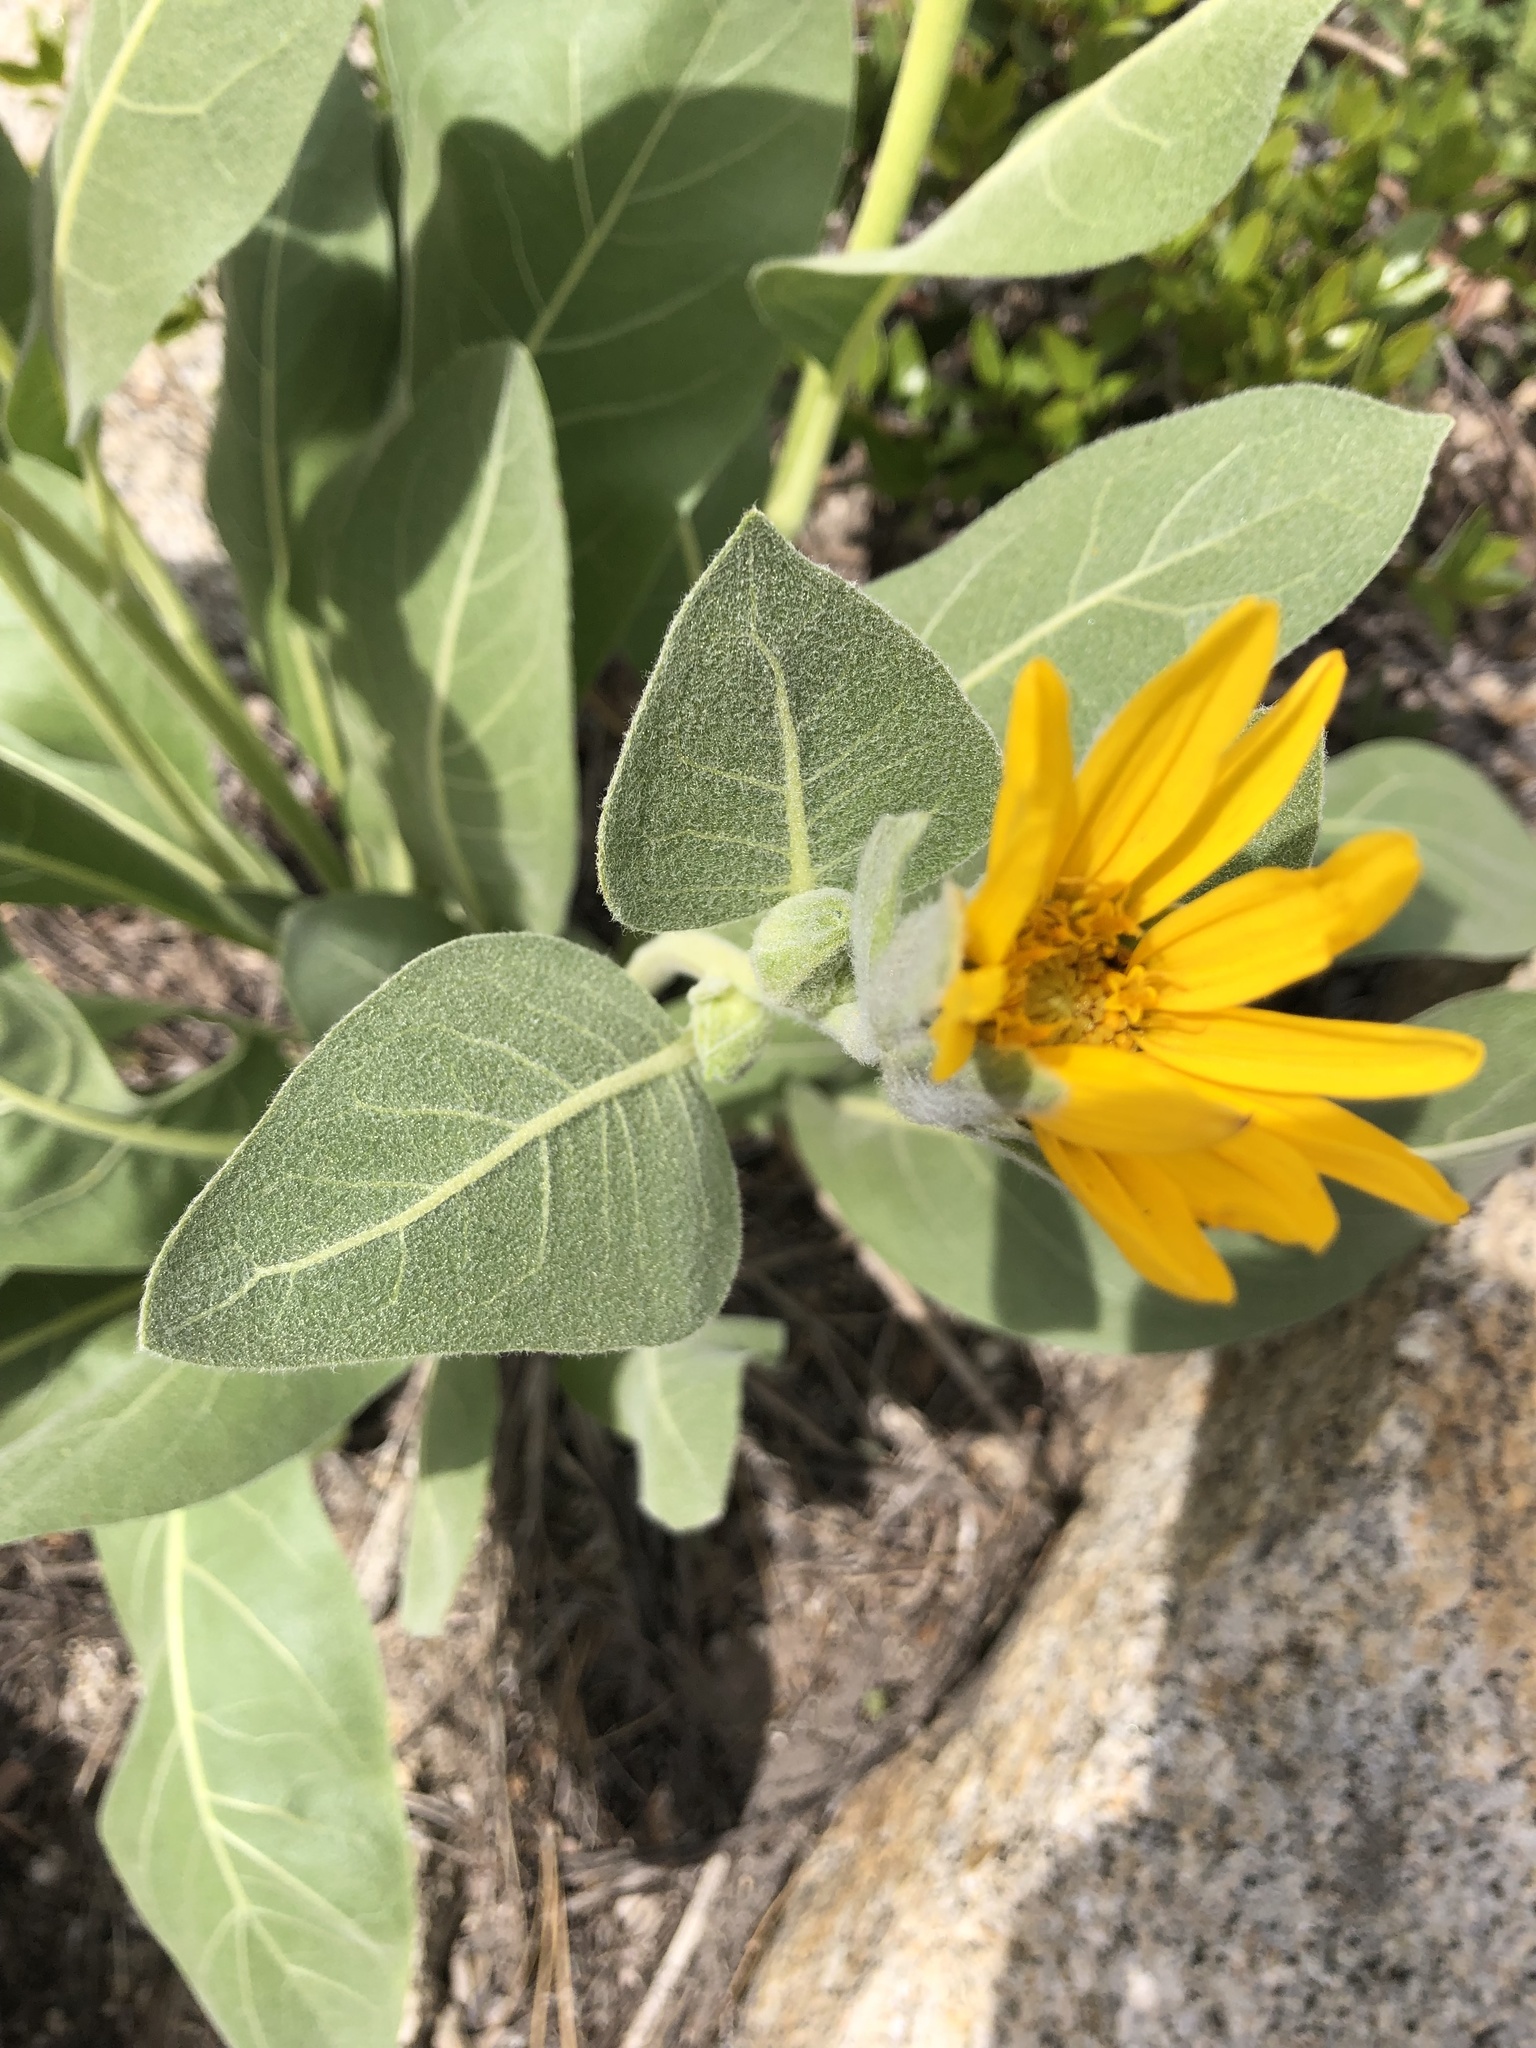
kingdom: Plantae
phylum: Tracheophyta
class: Magnoliopsida
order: Asterales
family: Asteraceae
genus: Wyethia
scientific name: Wyethia mollis
